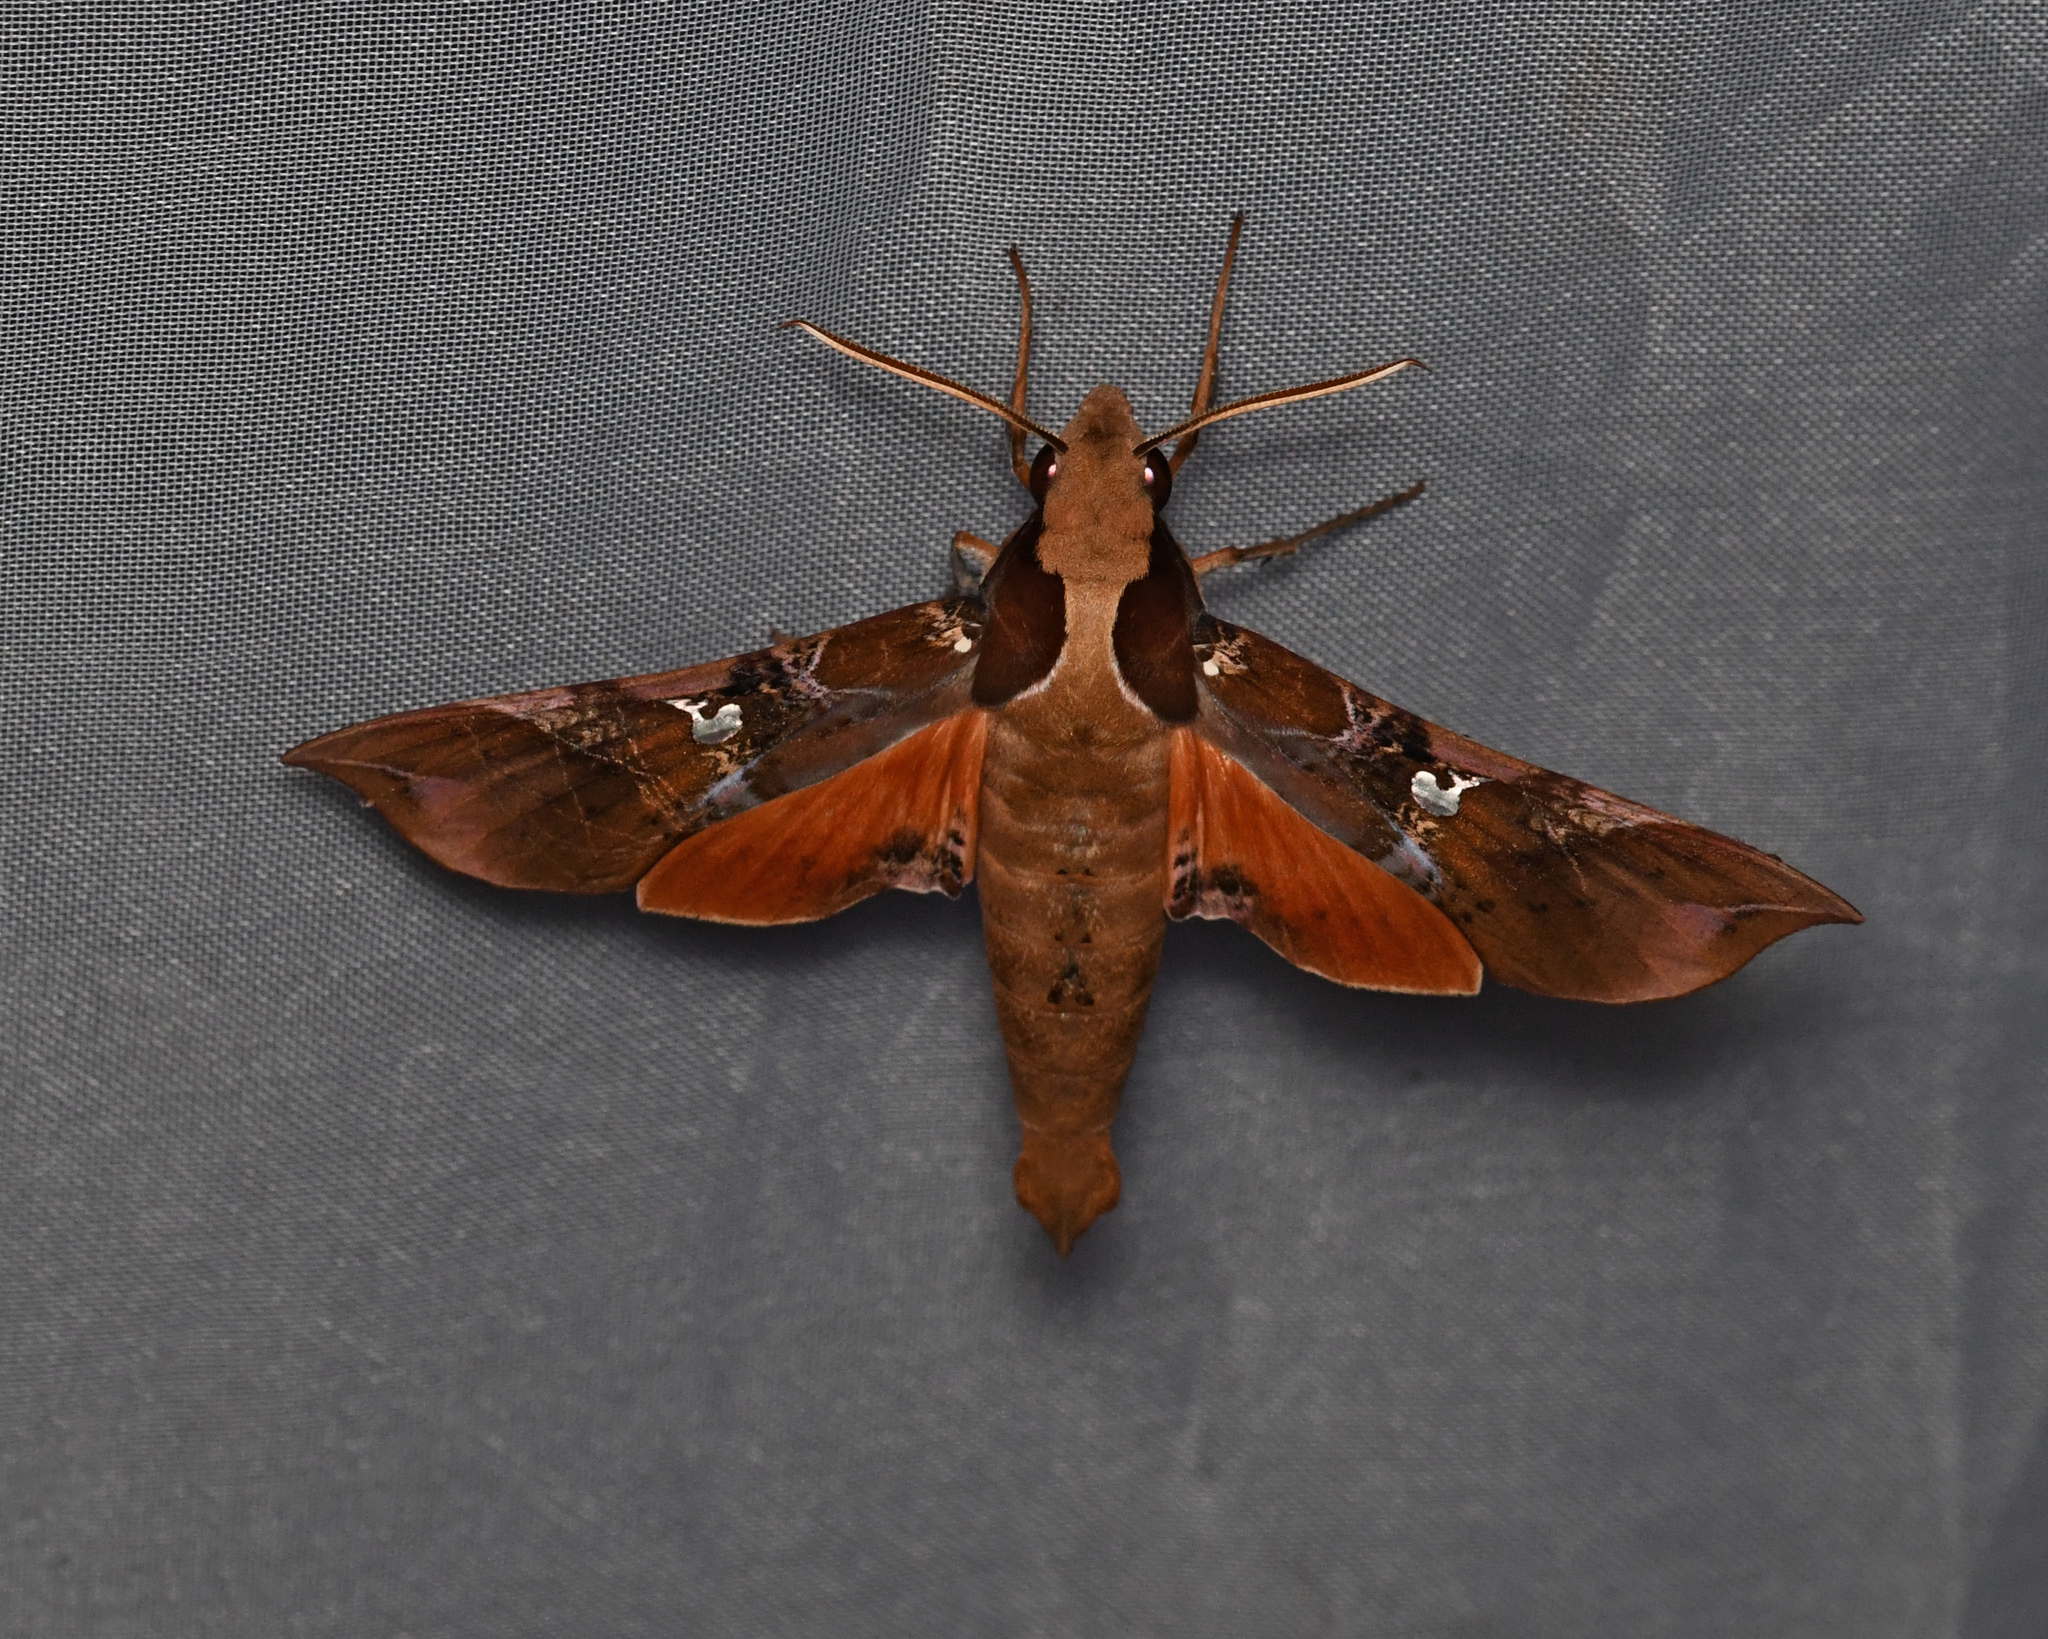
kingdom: Animalia
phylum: Arthropoda
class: Insecta
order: Lepidoptera
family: Sphingidae
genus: Callionima
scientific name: Callionima falcifera
